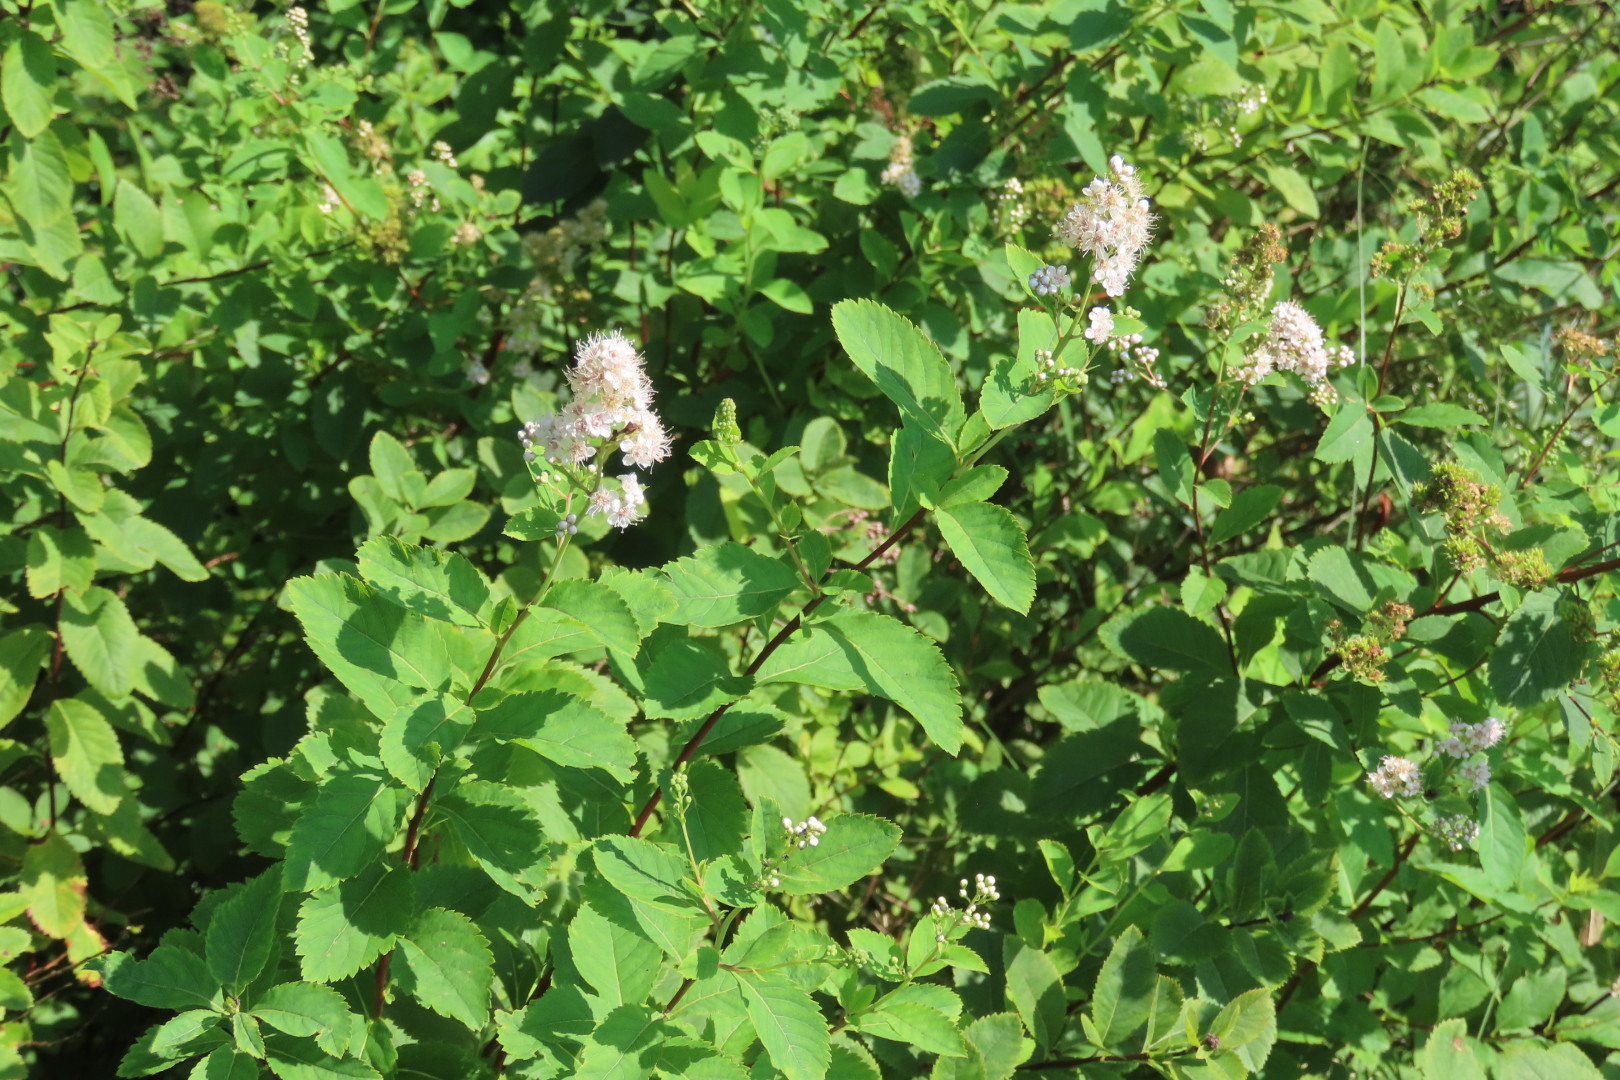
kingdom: Plantae
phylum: Tracheophyta
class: Magnoliopsida
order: Rosales
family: Rosaceae
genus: Spiraea
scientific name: Spiraea alba
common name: Pale bridewort
